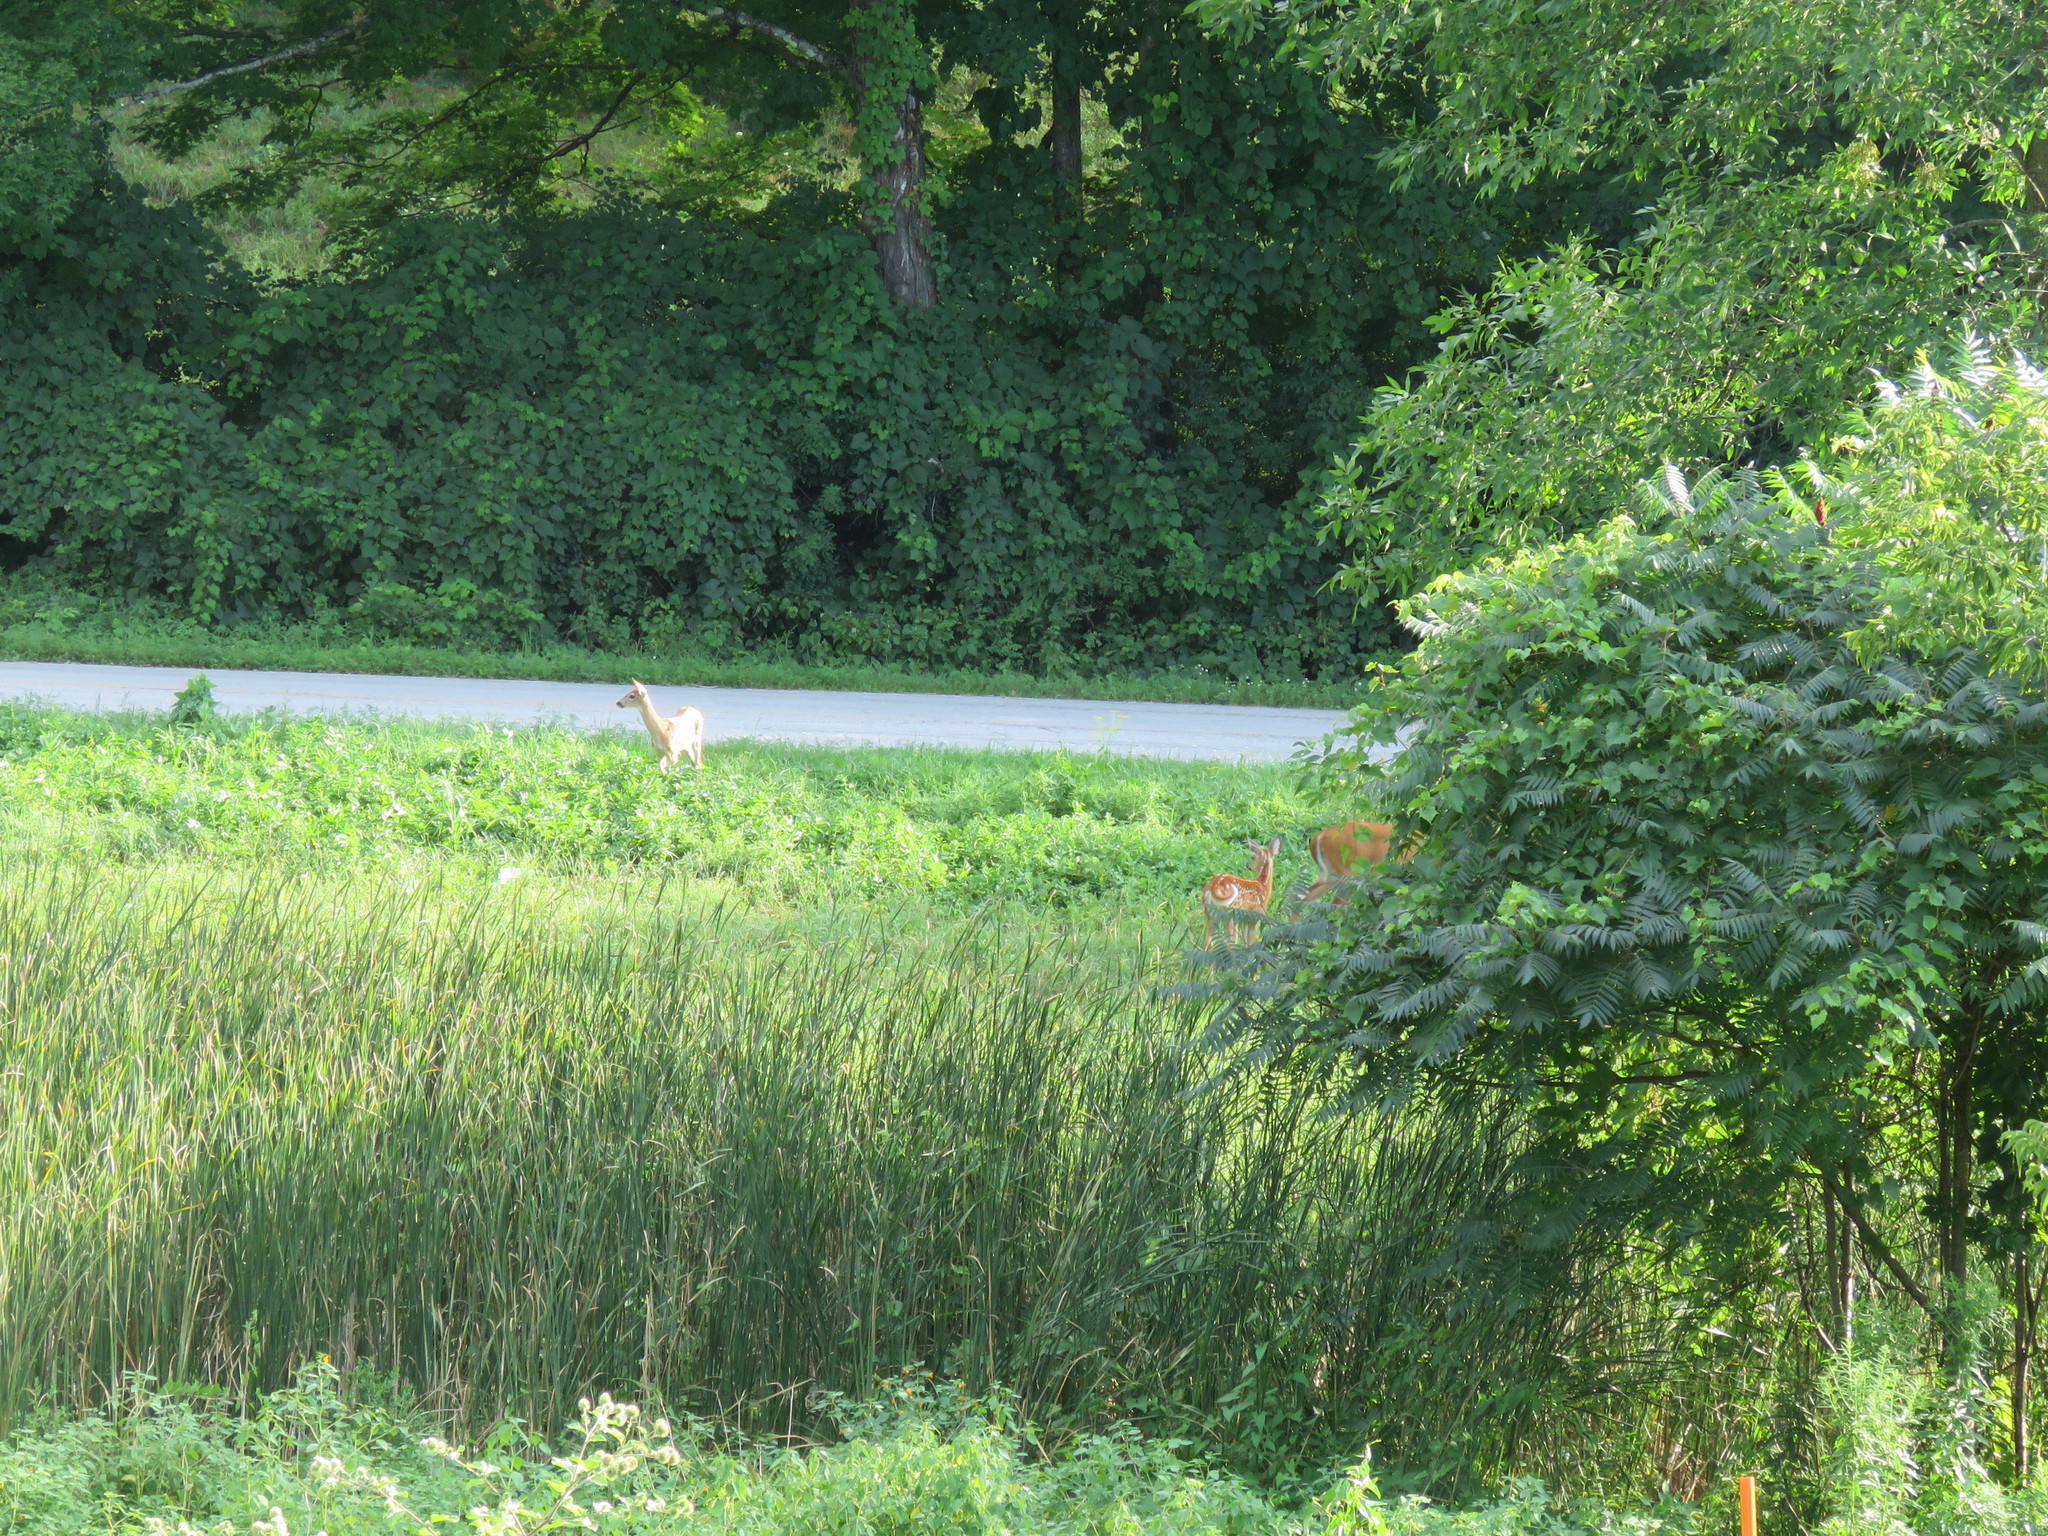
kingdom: Animalia
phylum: Chordata
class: Mammalia
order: Artiodactyla
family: Cervidae
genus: Odocoileus
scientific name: Odocoileus virginianus
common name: White-tailed deer
